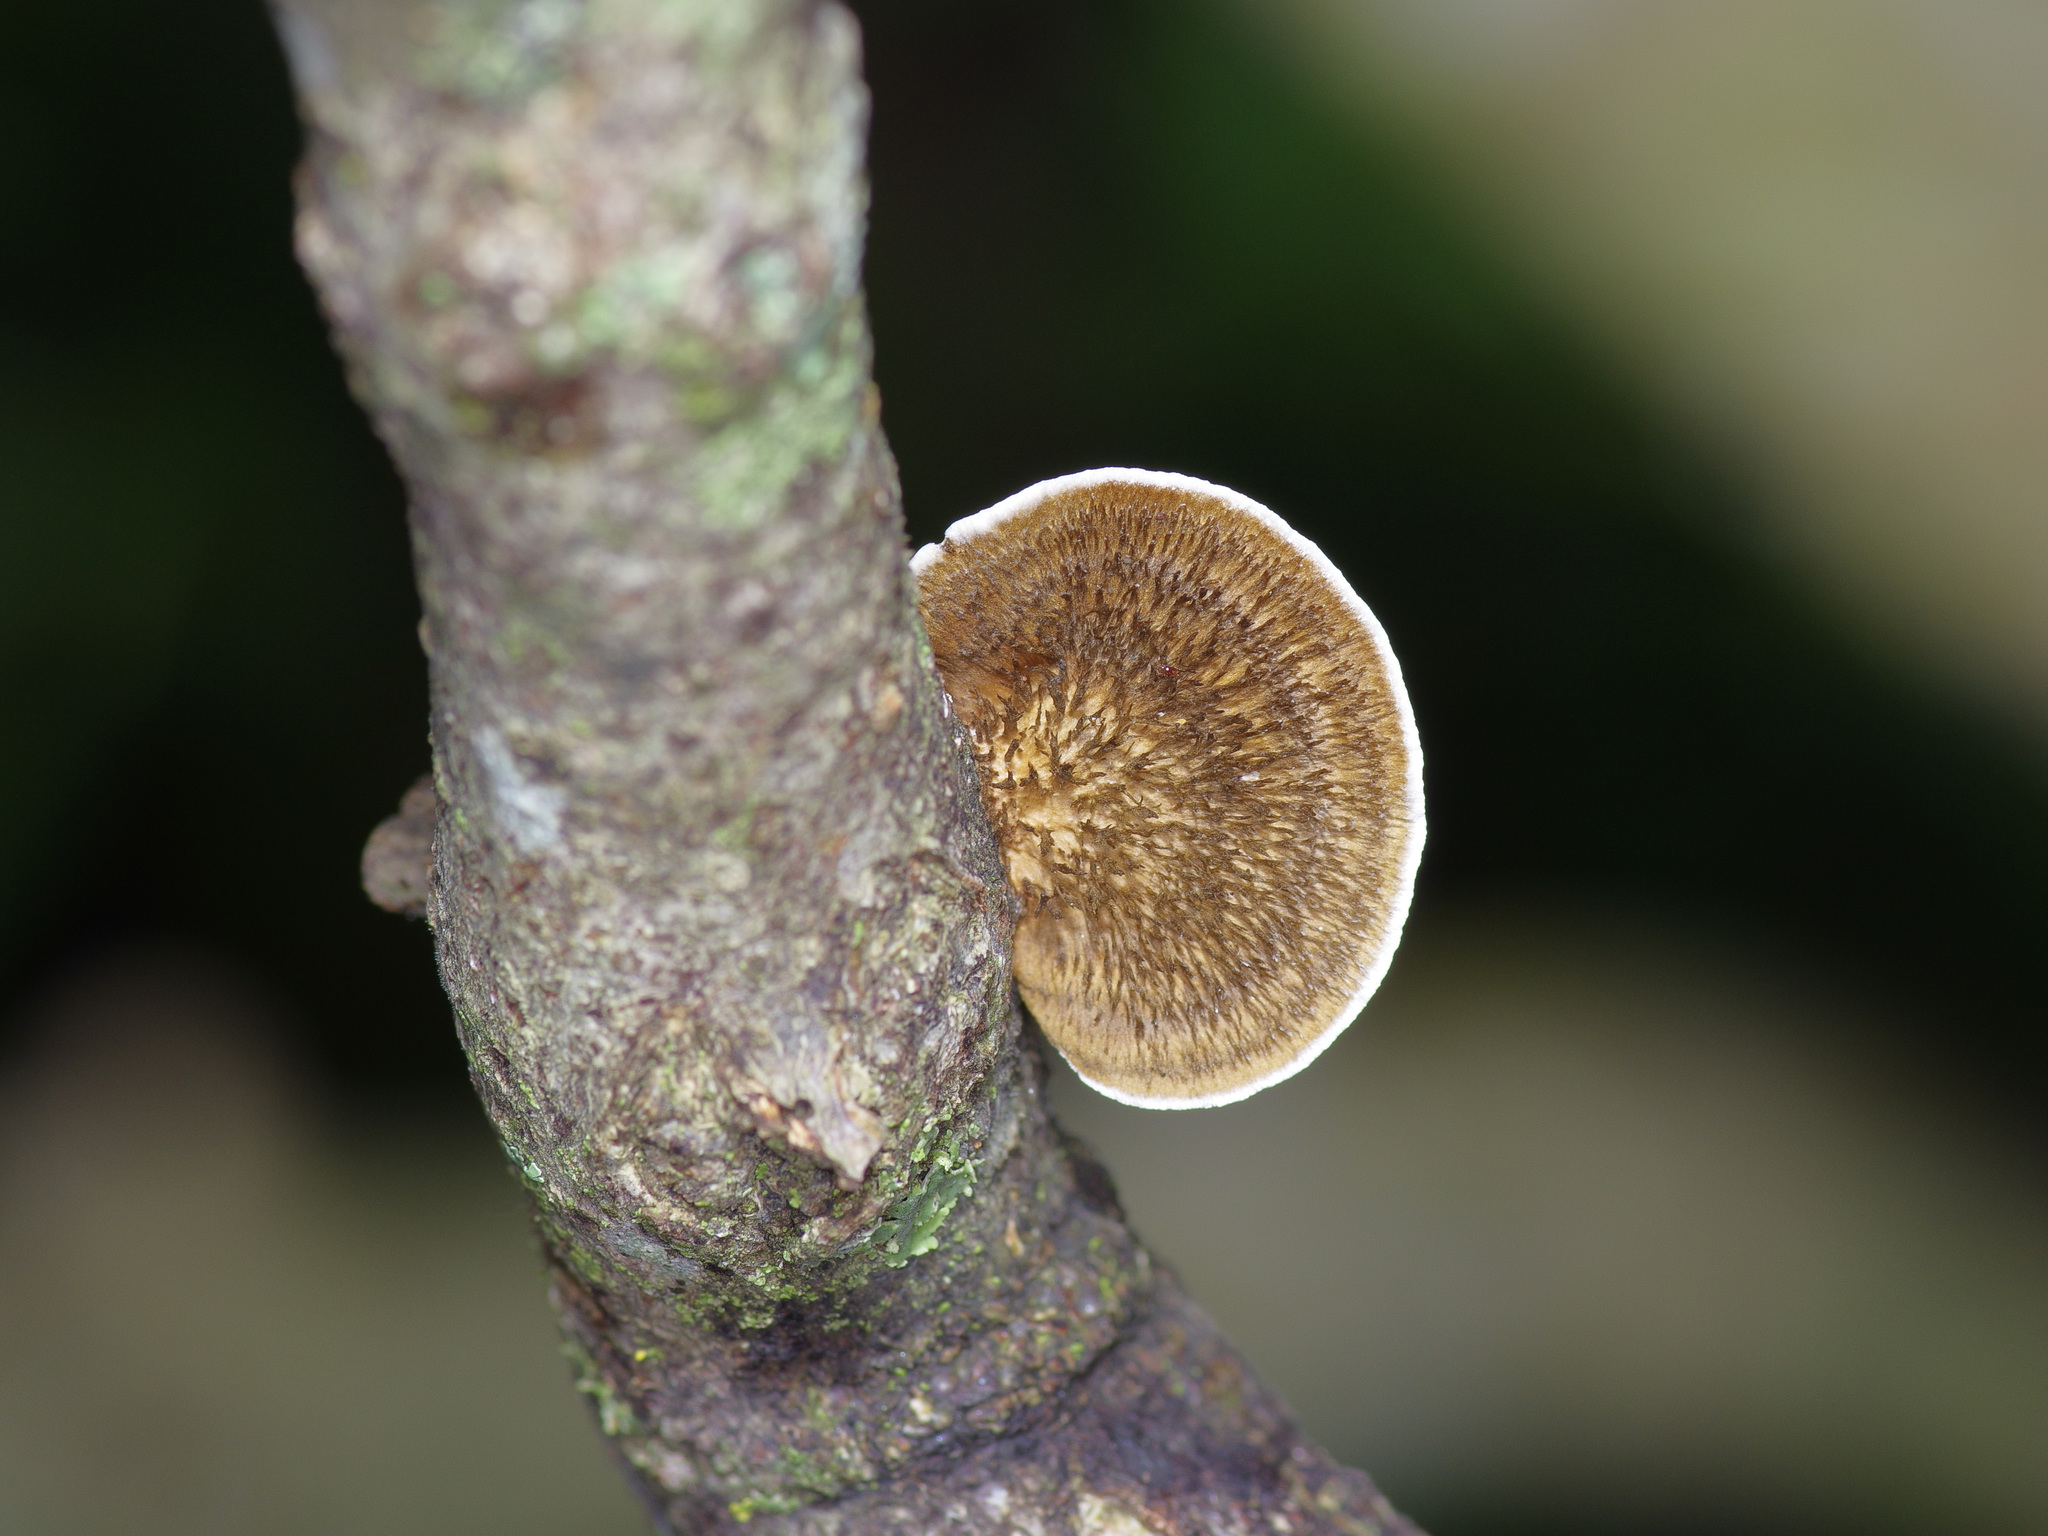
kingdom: Fungi
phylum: Basidiomycota
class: Agaricomycetes
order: Polyporales
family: Cerrenaceae
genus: Cerrena
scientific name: Cerrena hydnoides
